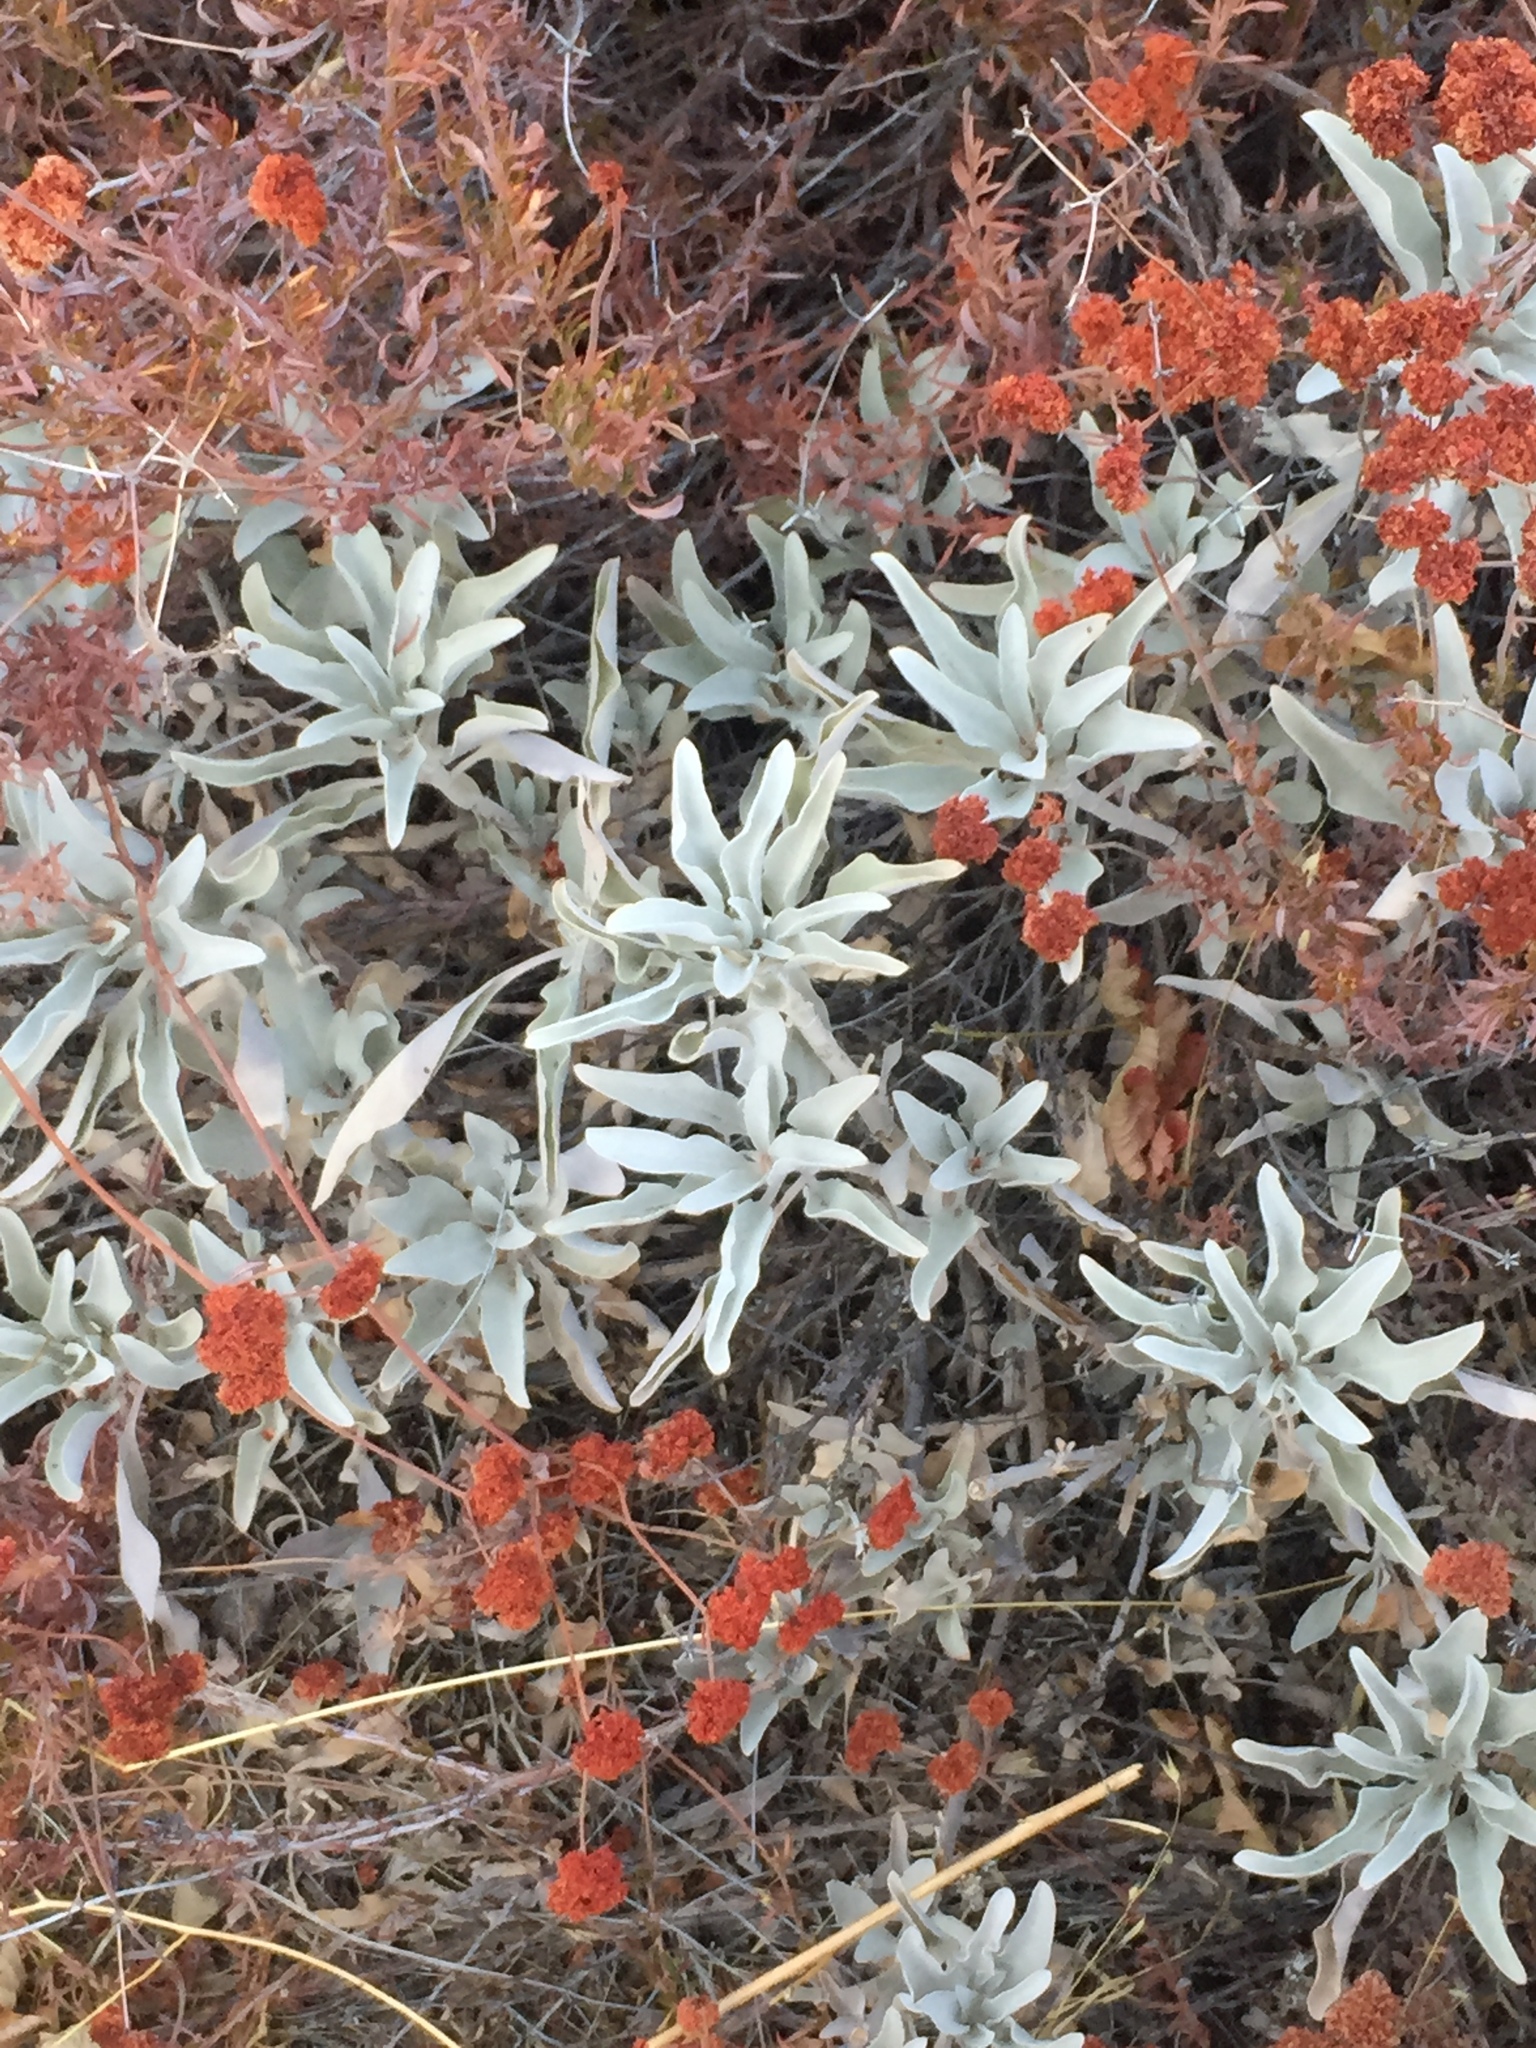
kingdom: Plantae
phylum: Tracheophyta
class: Magnoliopsida
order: Lamiales
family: Lamiaceae
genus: Salvia
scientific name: Salvia apiana
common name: White sage
